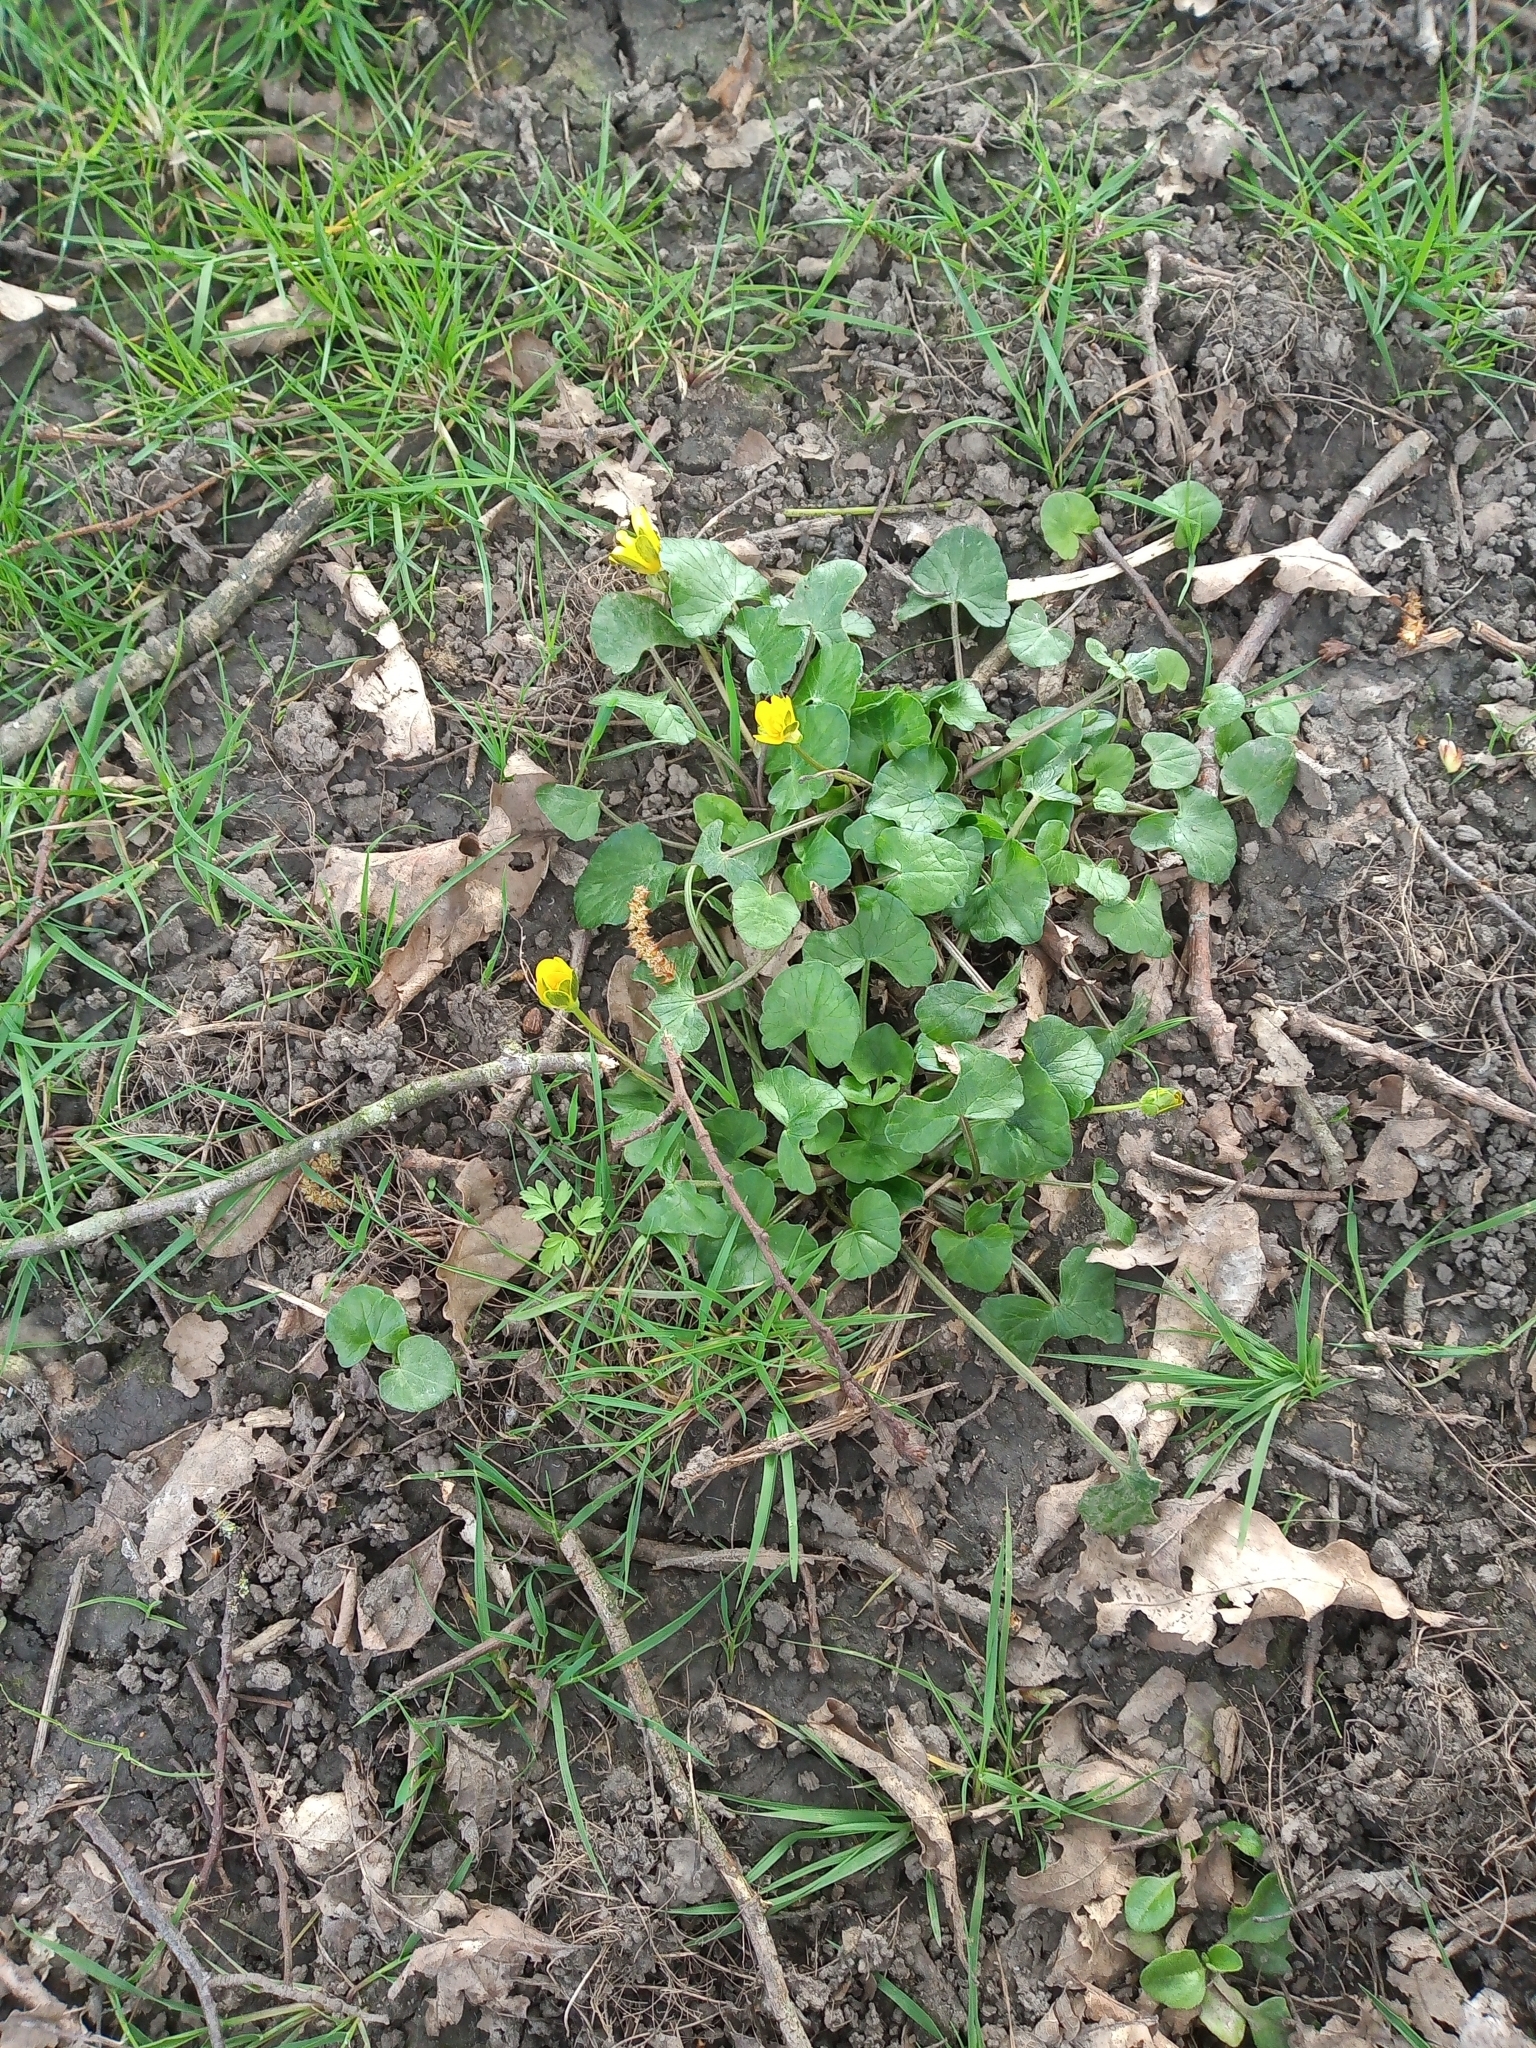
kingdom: Plantae
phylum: Tracheophyta
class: Magnoliopsida
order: Ranunculales
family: Ranunculaceae
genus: Ficaria
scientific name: Ficaria verna
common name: Lesser celandine
